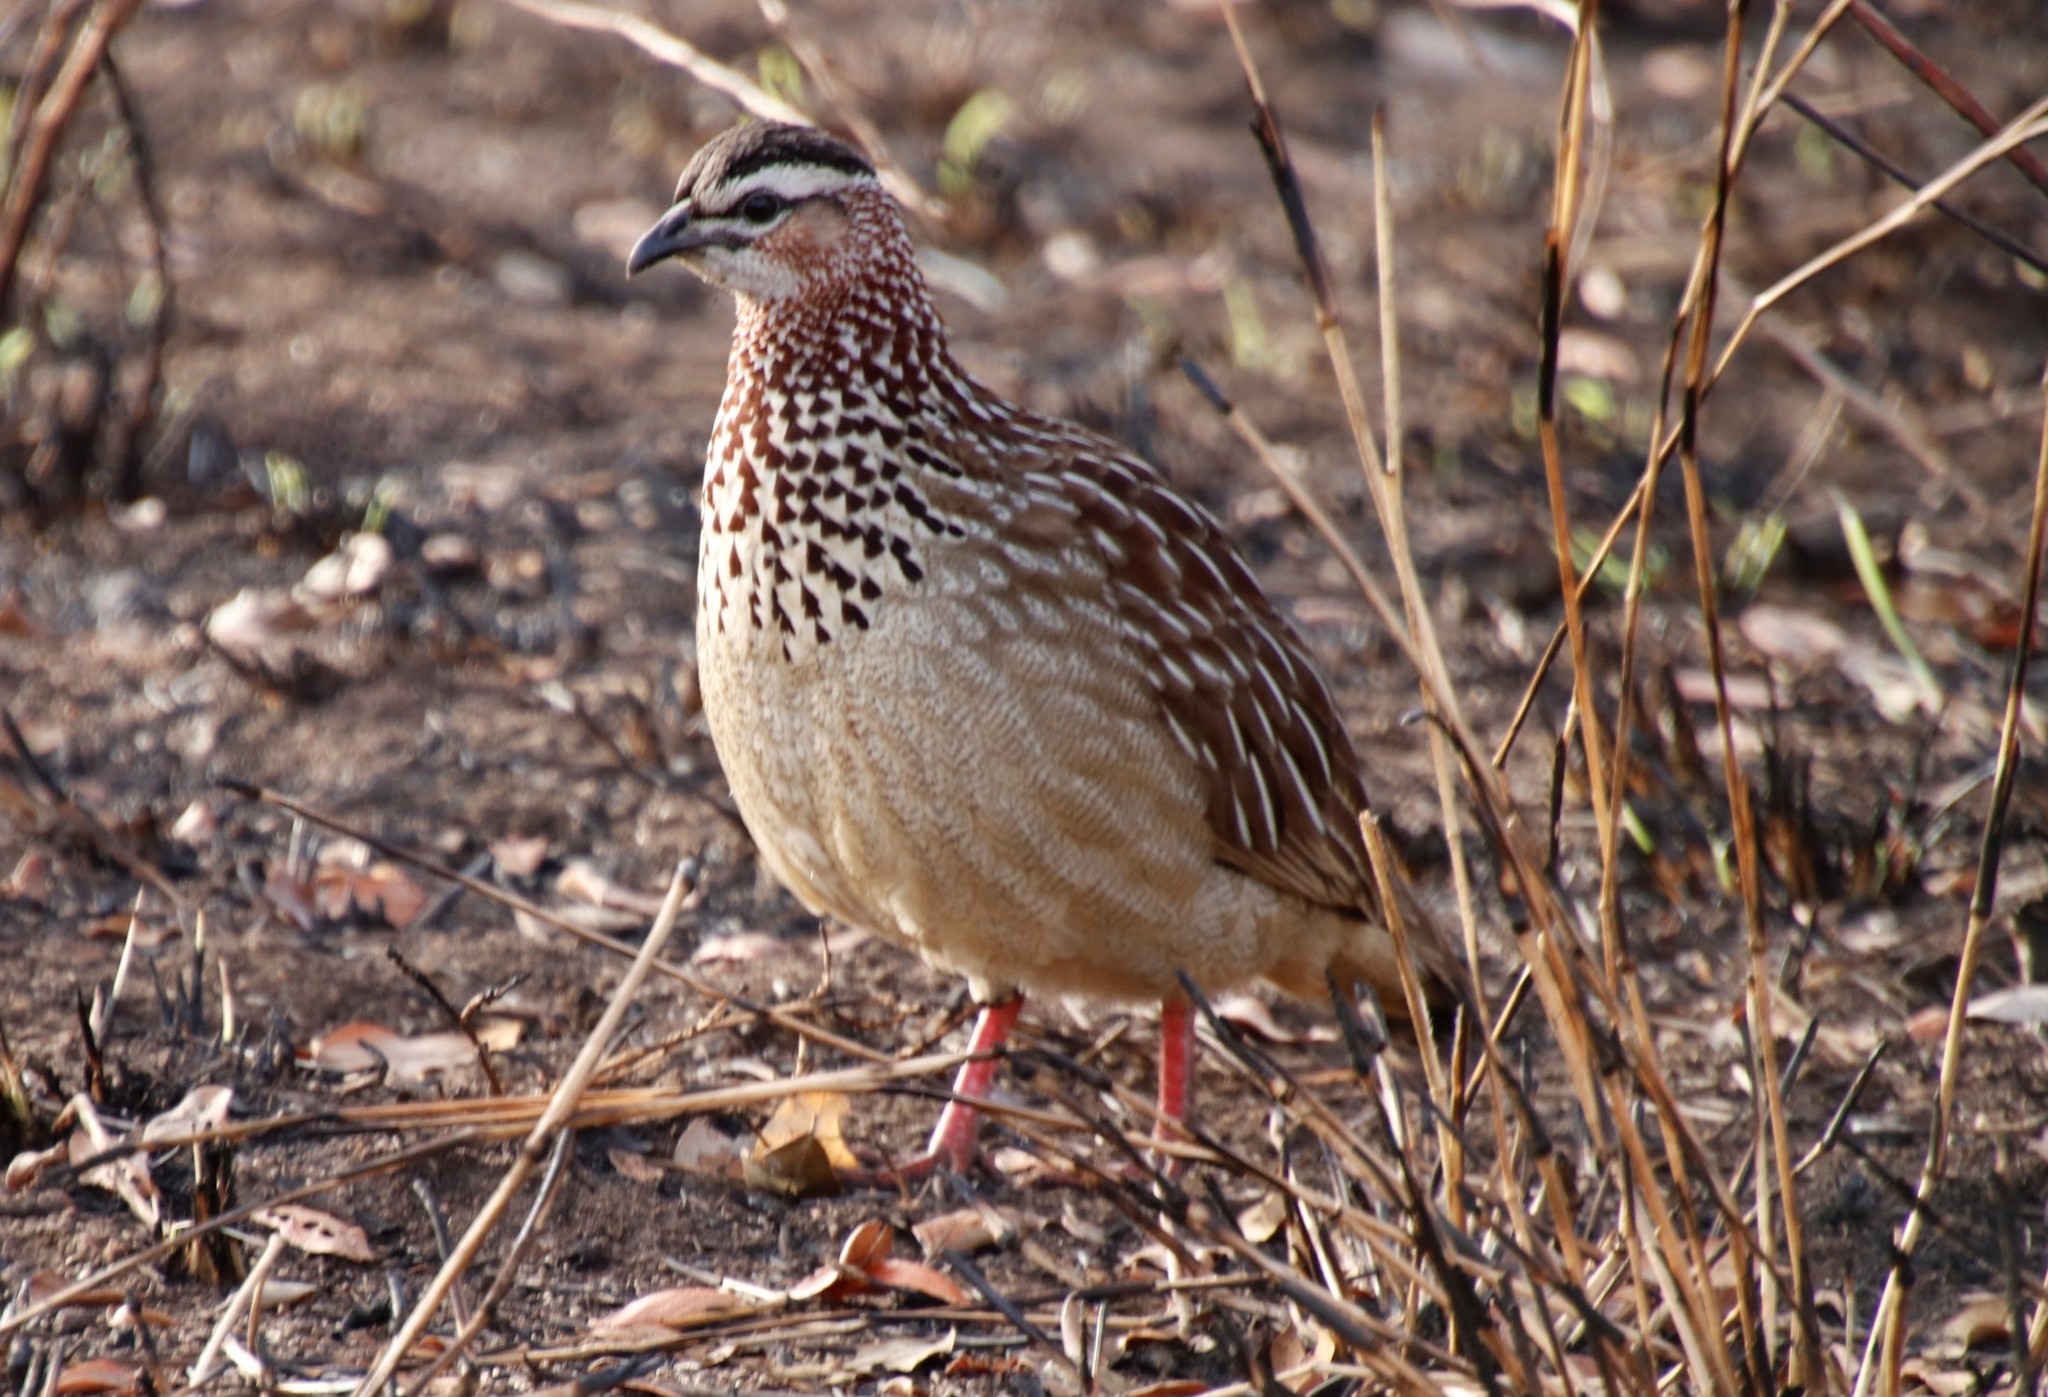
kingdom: Animalia
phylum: Chordata
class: Aves
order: Galliformes
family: Phasianidae
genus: Ortygornis
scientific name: Ortygornis sephaena
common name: Crested francolin
